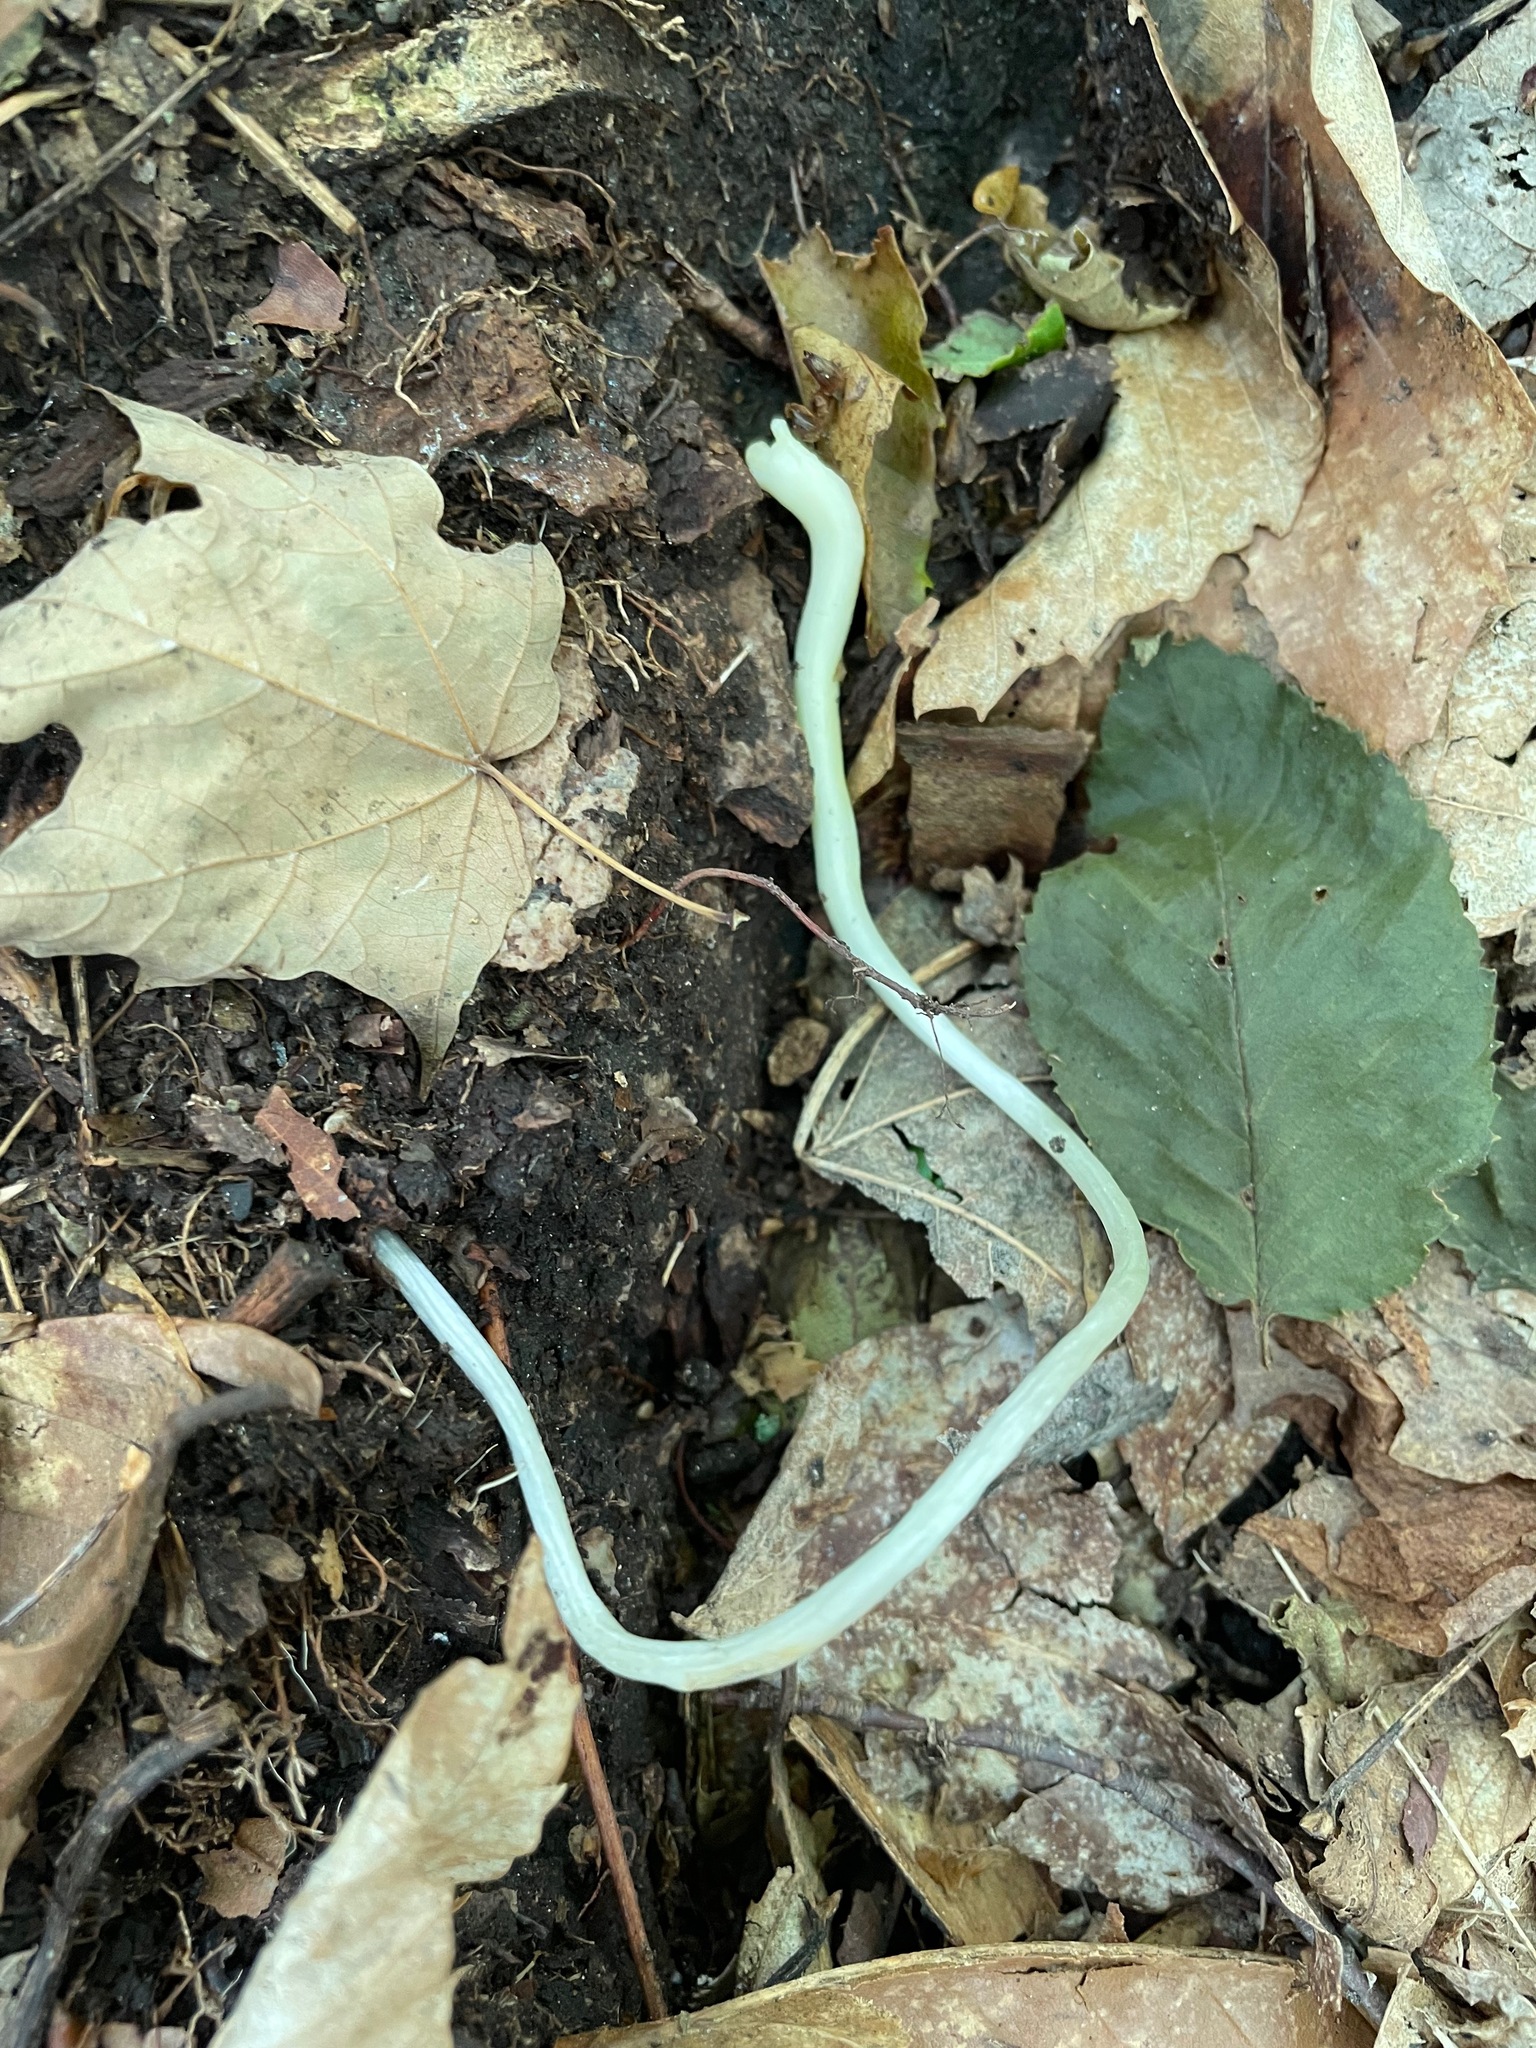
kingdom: Plantae
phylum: Tracheophyta
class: Liliopsida
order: Liliales
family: Liliaceae
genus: Erythronium
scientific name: Erythronium americanum
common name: Yellow adder's-tongue
